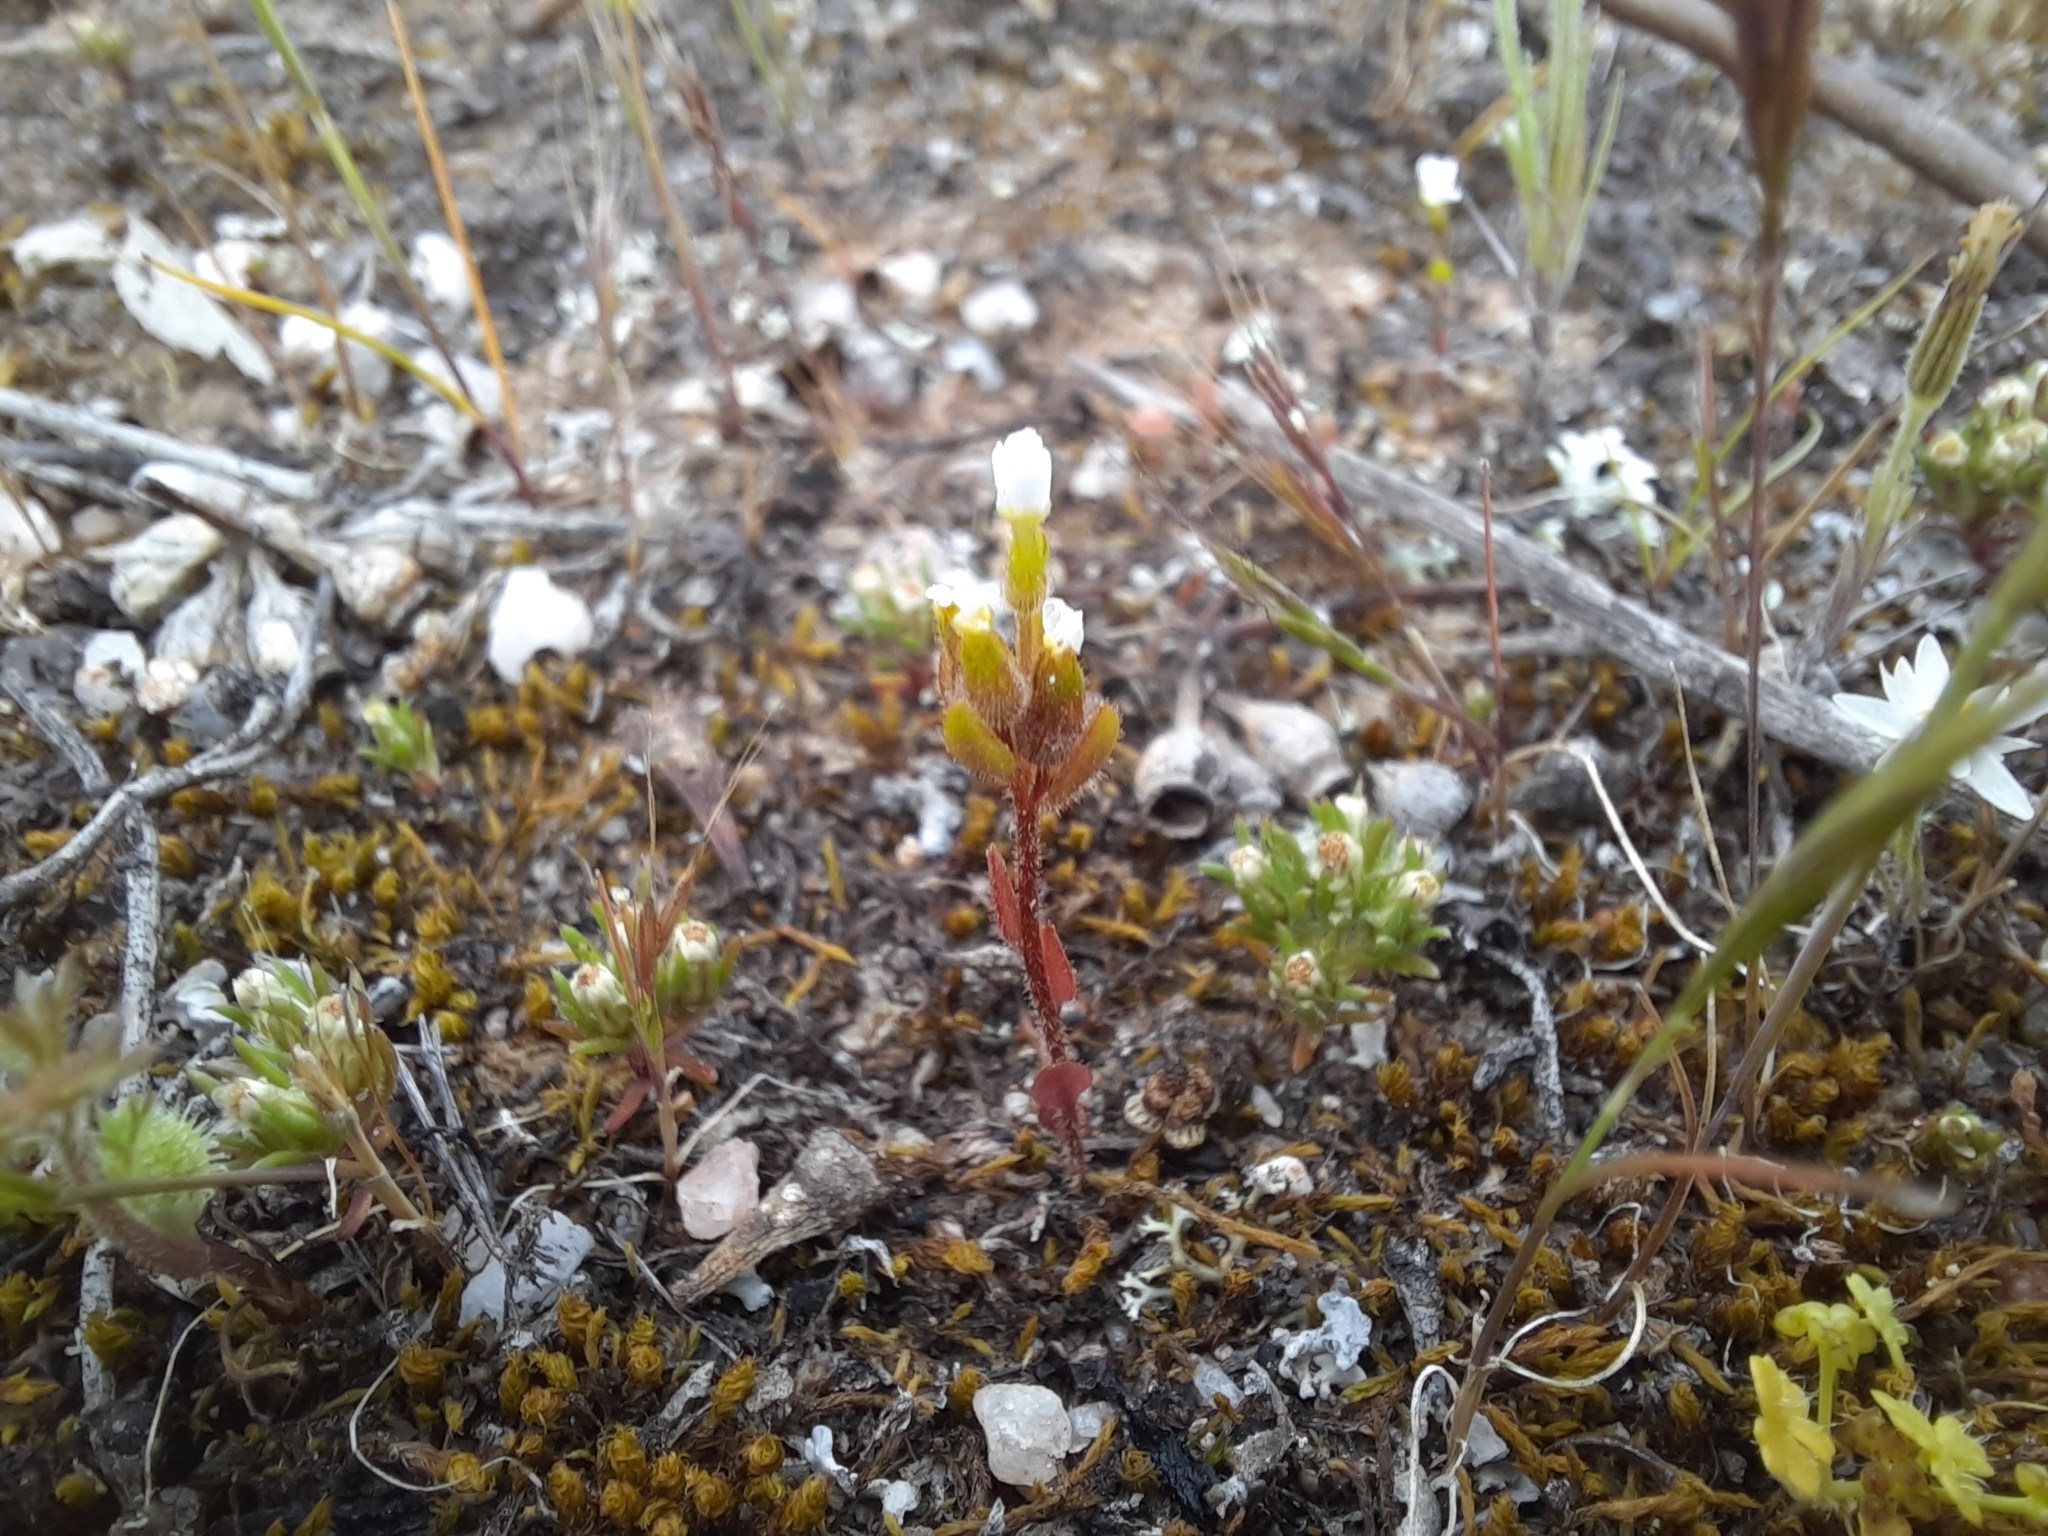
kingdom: Plantae
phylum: Tracheophyta
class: Magnoliopsida
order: Asterales
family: Stylidiaceae
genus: Levenhookia
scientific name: Levenhookia dubia
